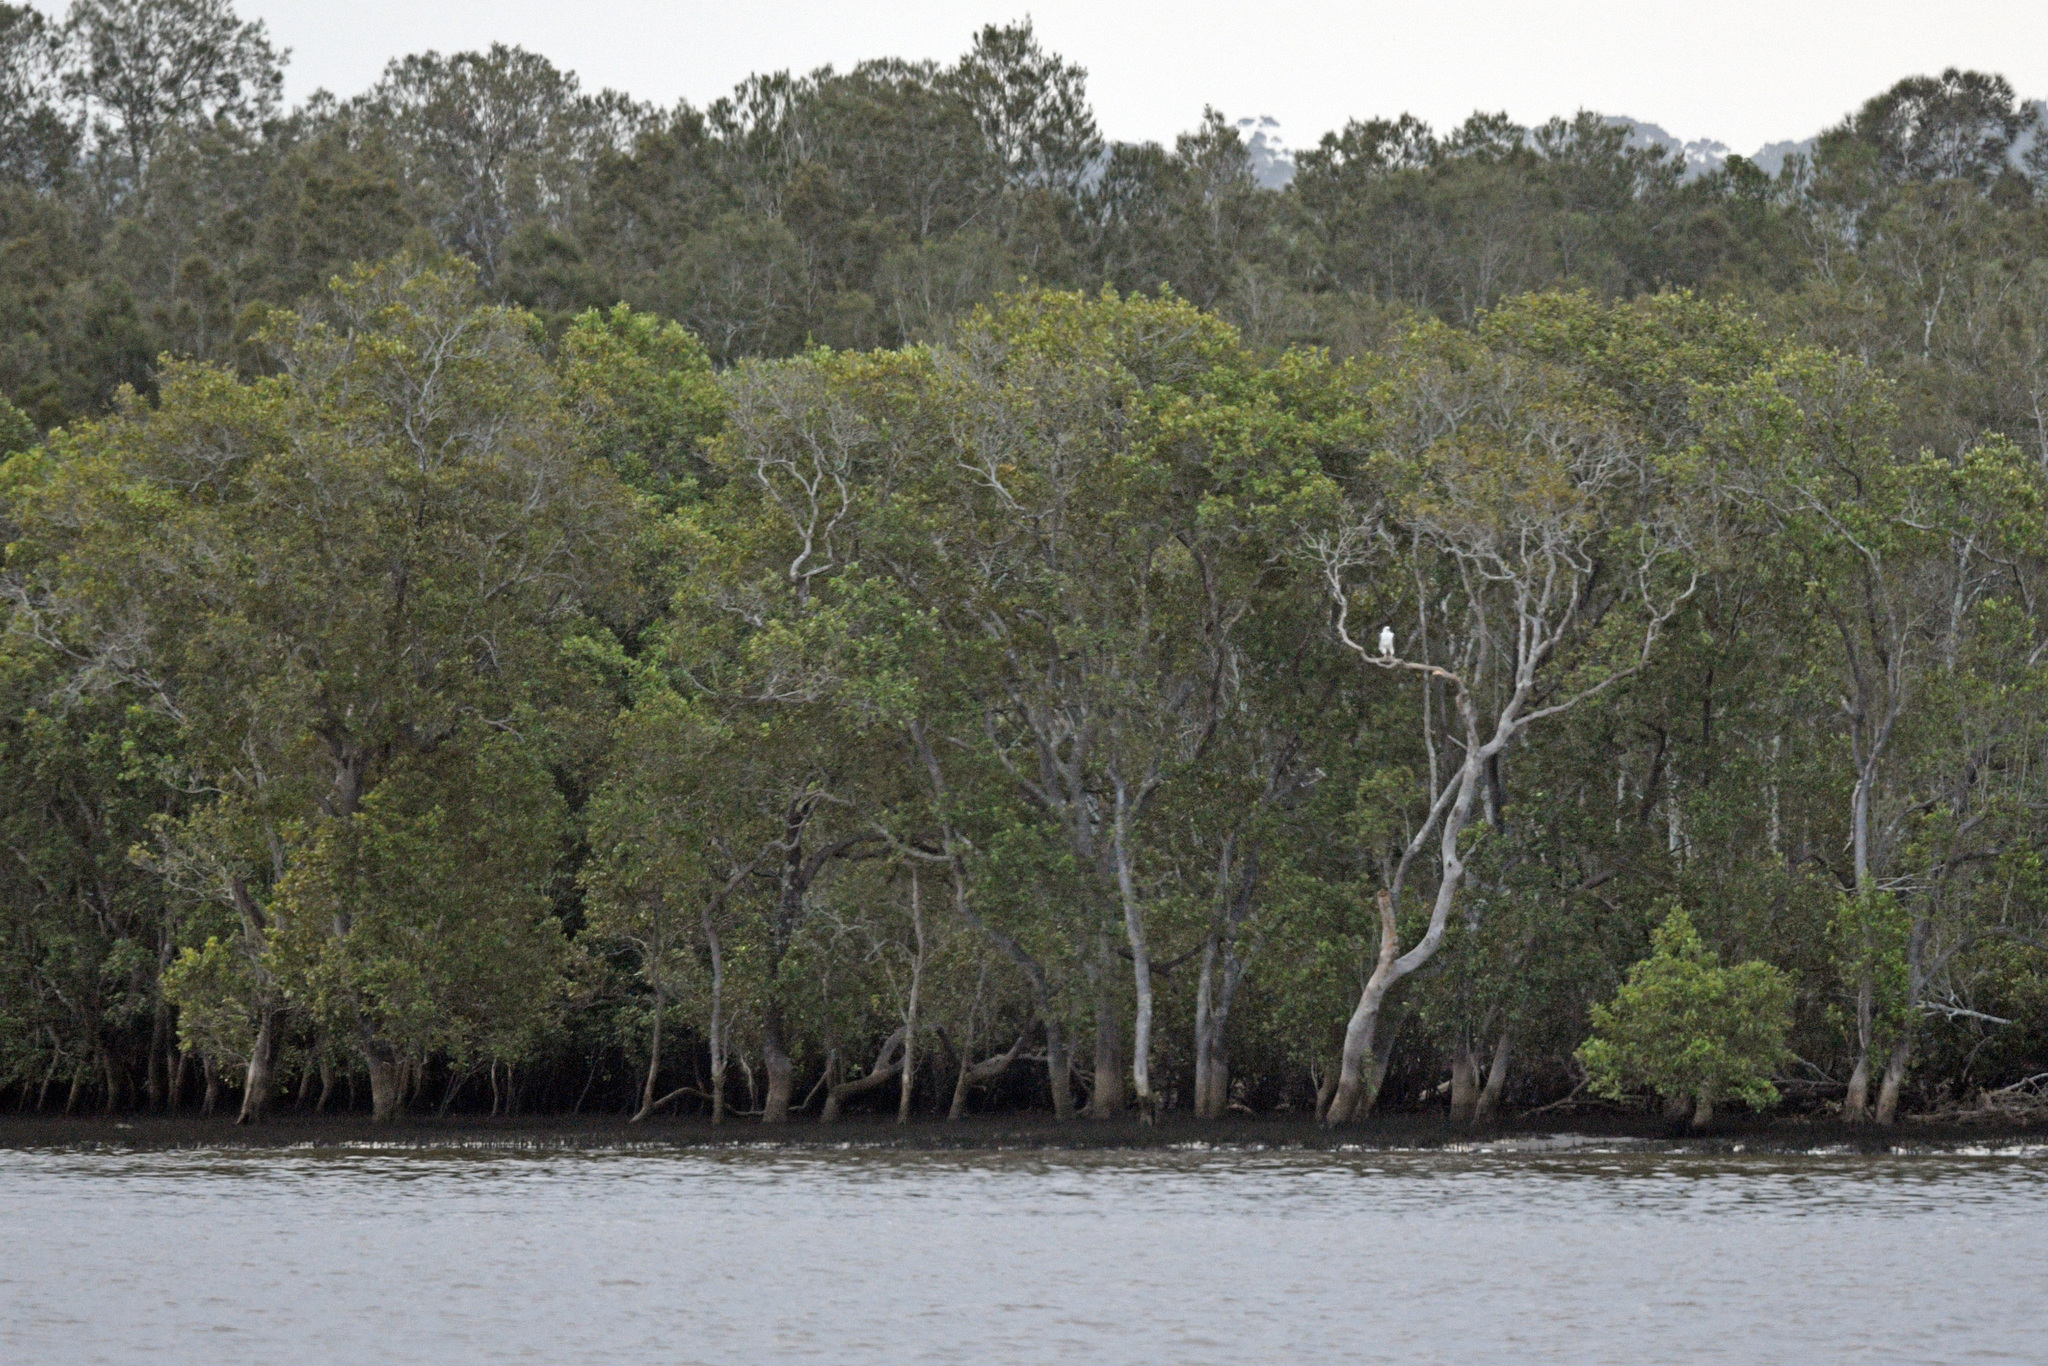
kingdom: Animalia
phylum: Chordata
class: Aves
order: Accipitriformes
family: Accipitridae
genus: Haliaeetus
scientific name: Haliaeetus leucogaster
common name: White-bellied sea eagle
